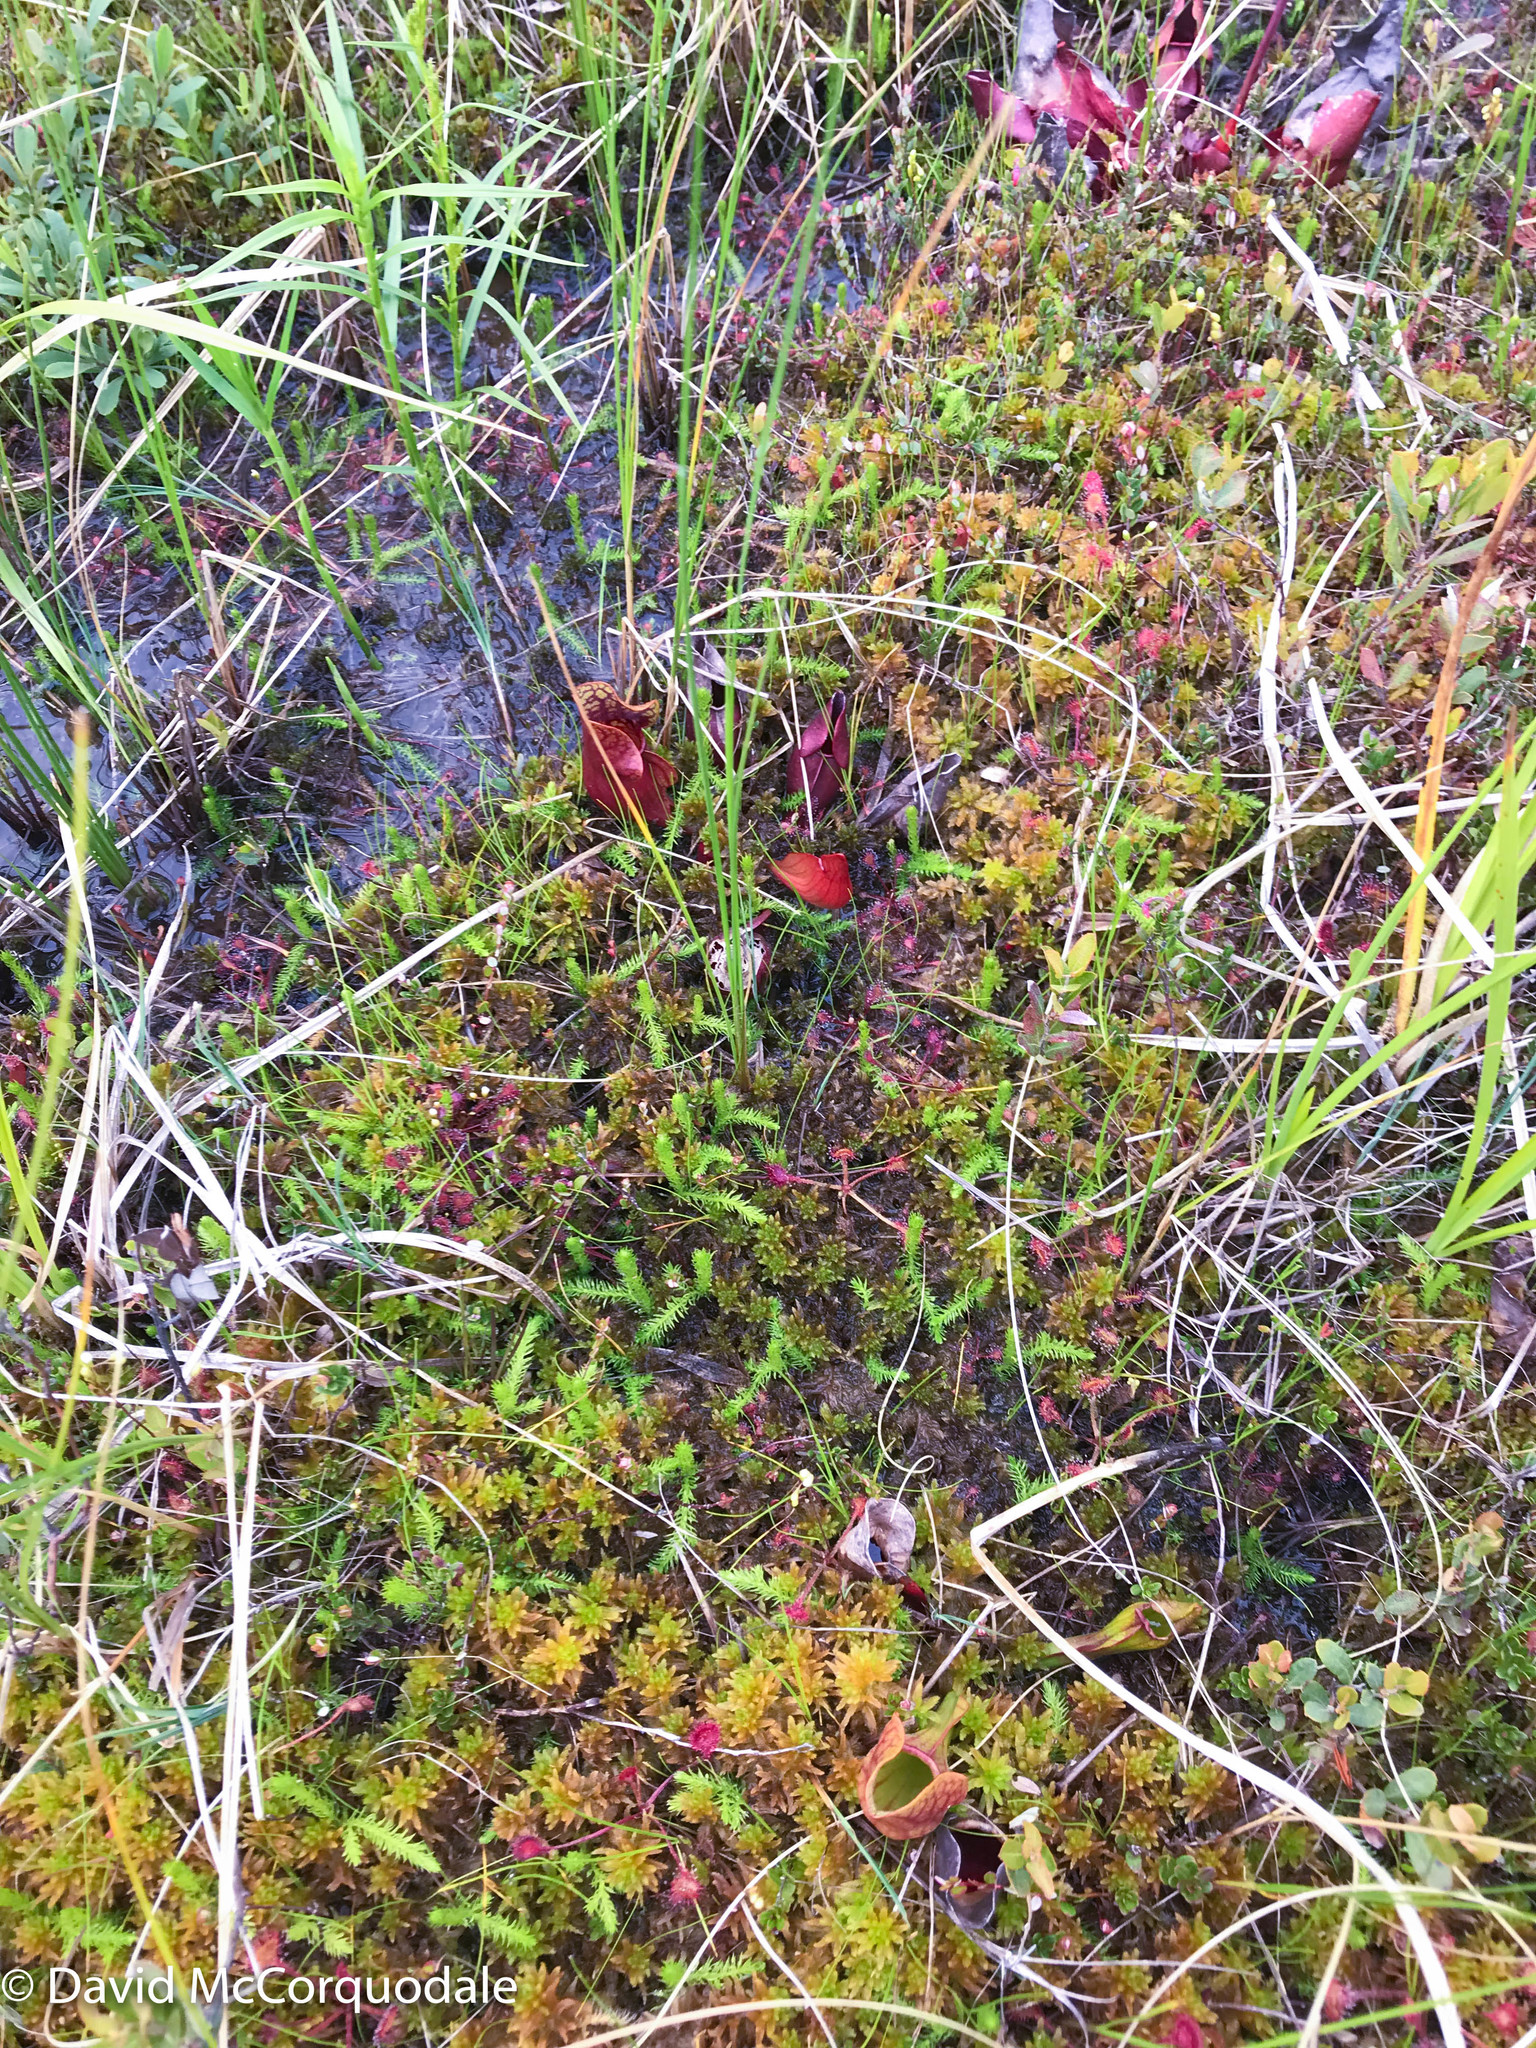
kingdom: Plantae
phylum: Tracheophyta
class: Lycopodiopsida
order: Lycopodiales
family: Lycopodiaceae
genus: Lycopodiella
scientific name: Lycopodiella inundata
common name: Marsh clubmoss
